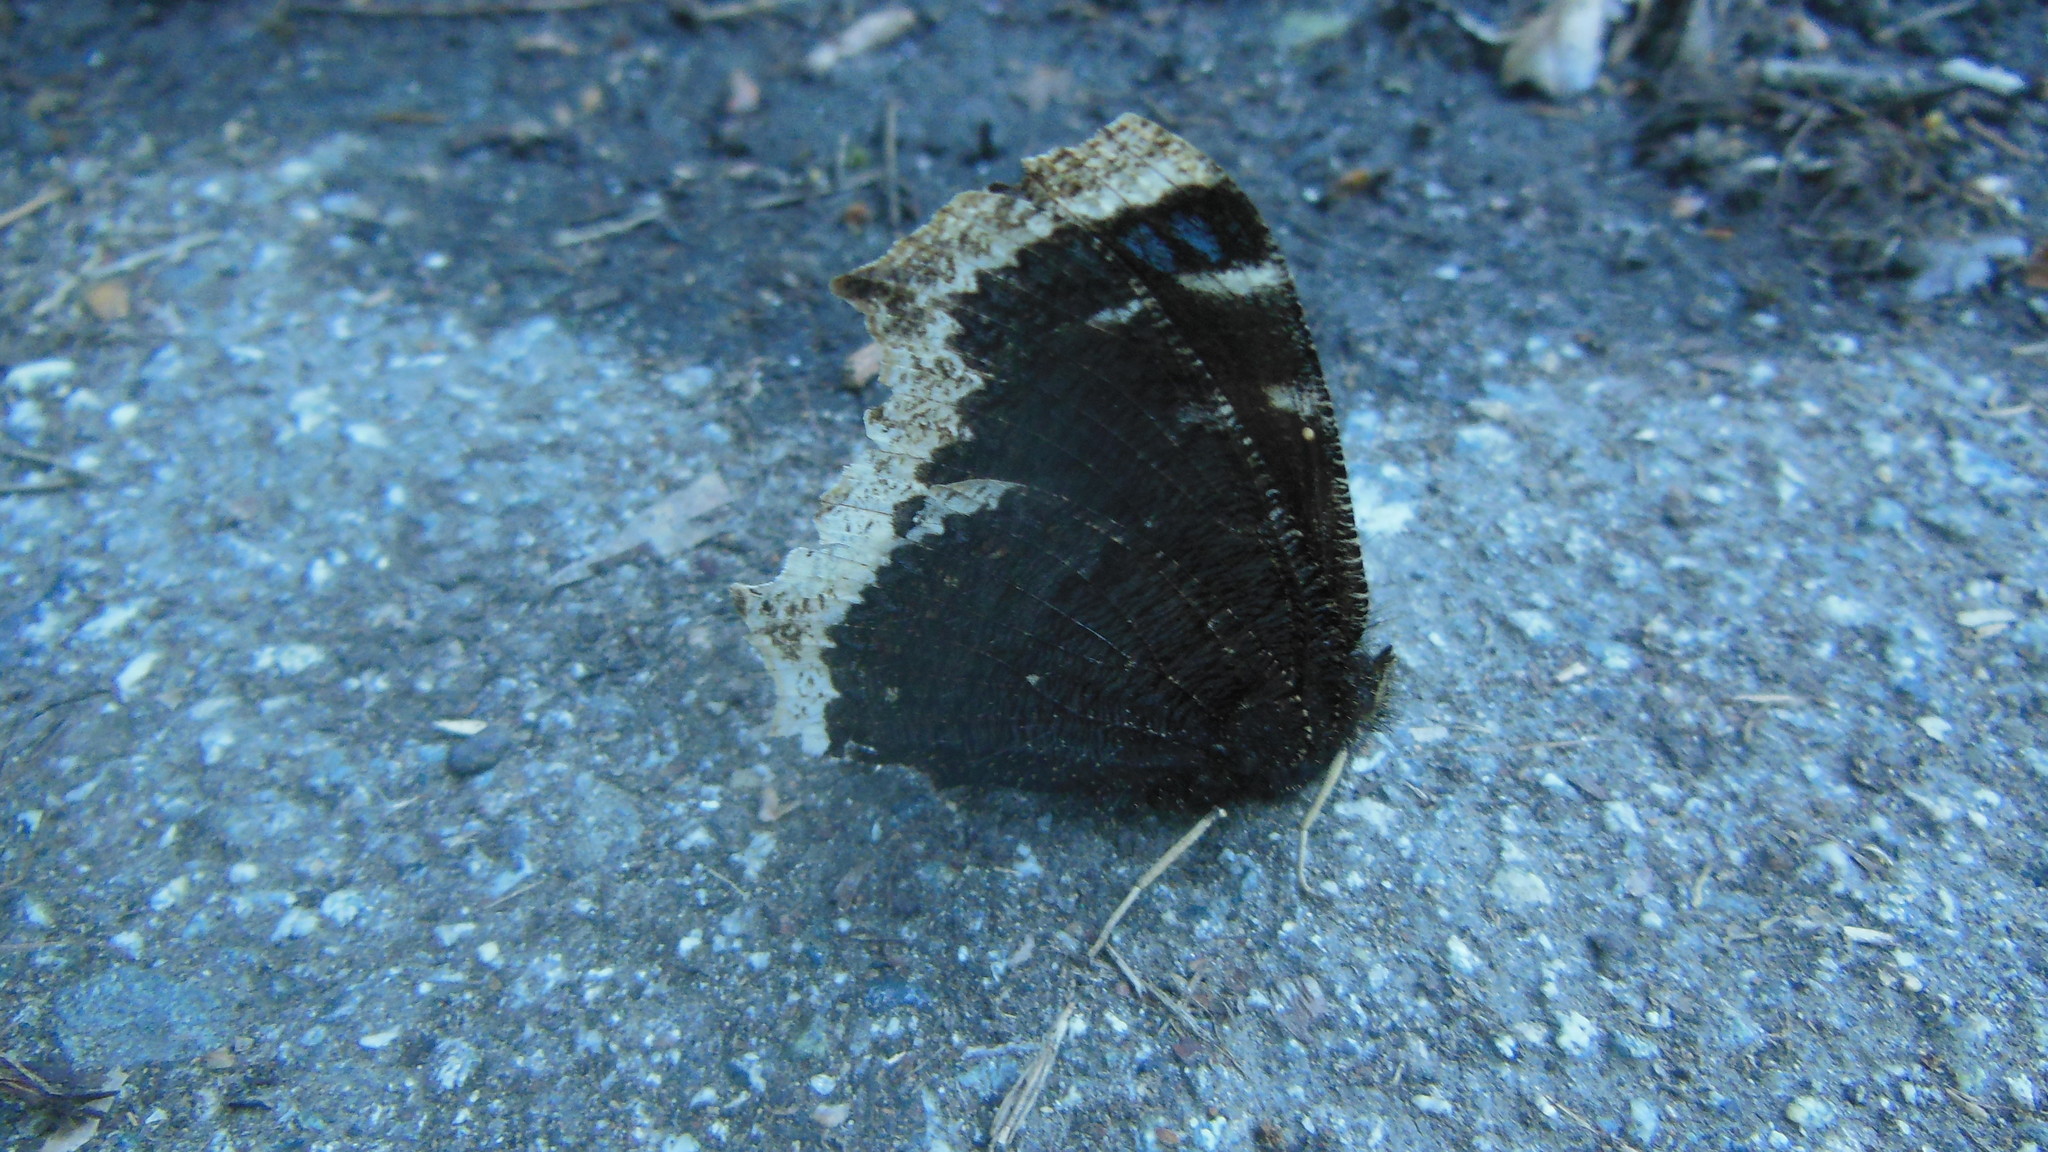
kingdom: Animalia
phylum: Arthropoda
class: Insecta
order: Lepidoptera
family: Nymphalidae
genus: Nymphalis
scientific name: Nymphalis antiopa
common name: Camberwell beauty
